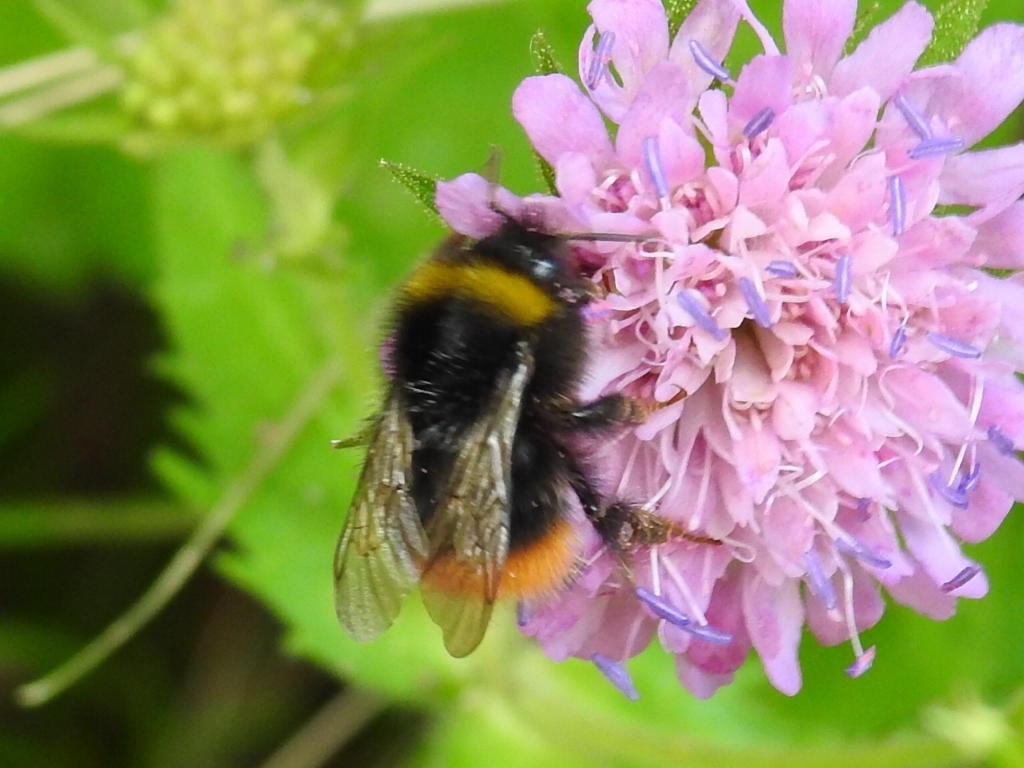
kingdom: Animalia
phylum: Arthropoda
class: Insecta
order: Hymenoptera
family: Apidae
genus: Bombus
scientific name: Bombus pratorum
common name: Early humble-bee
